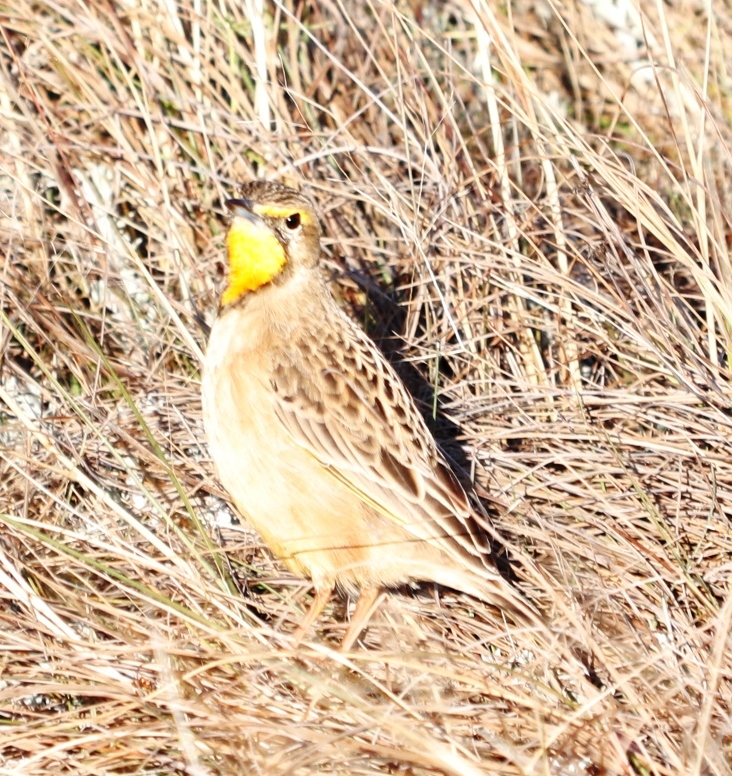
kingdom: Animalia
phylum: Chordata
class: Aves
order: Passeriformes
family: Motacillidae
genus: Macronyx
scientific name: Macronyx capensis
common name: Cape longclaw
